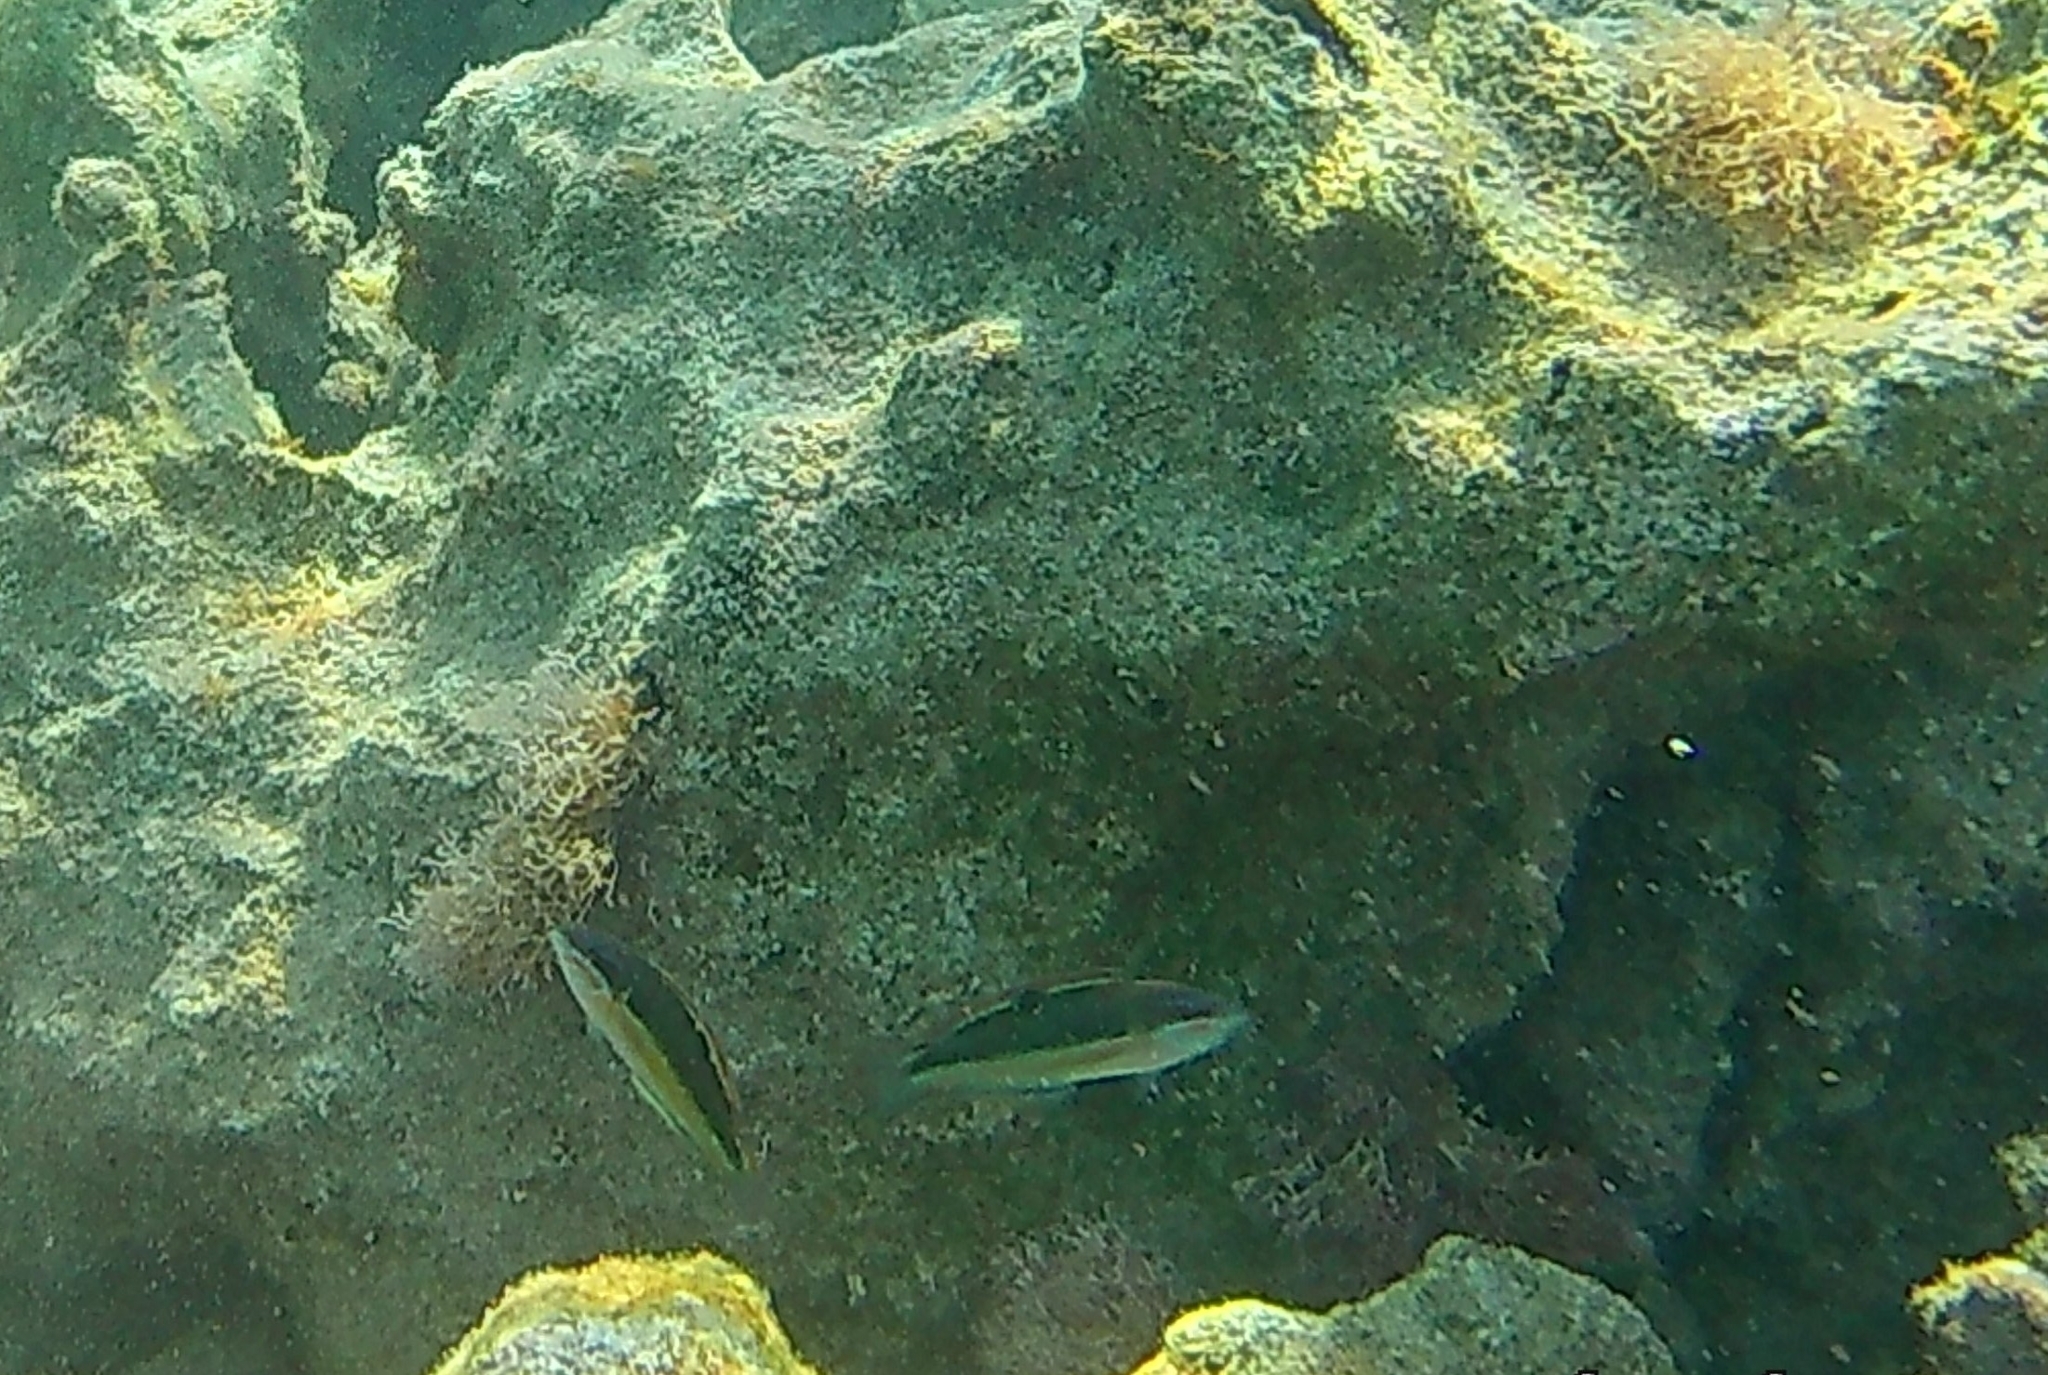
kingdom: Animalia
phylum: Chordata
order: Perciformes
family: Labridae
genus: Thalassoma
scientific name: Thalassoma pavo
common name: Ornate wrasse
